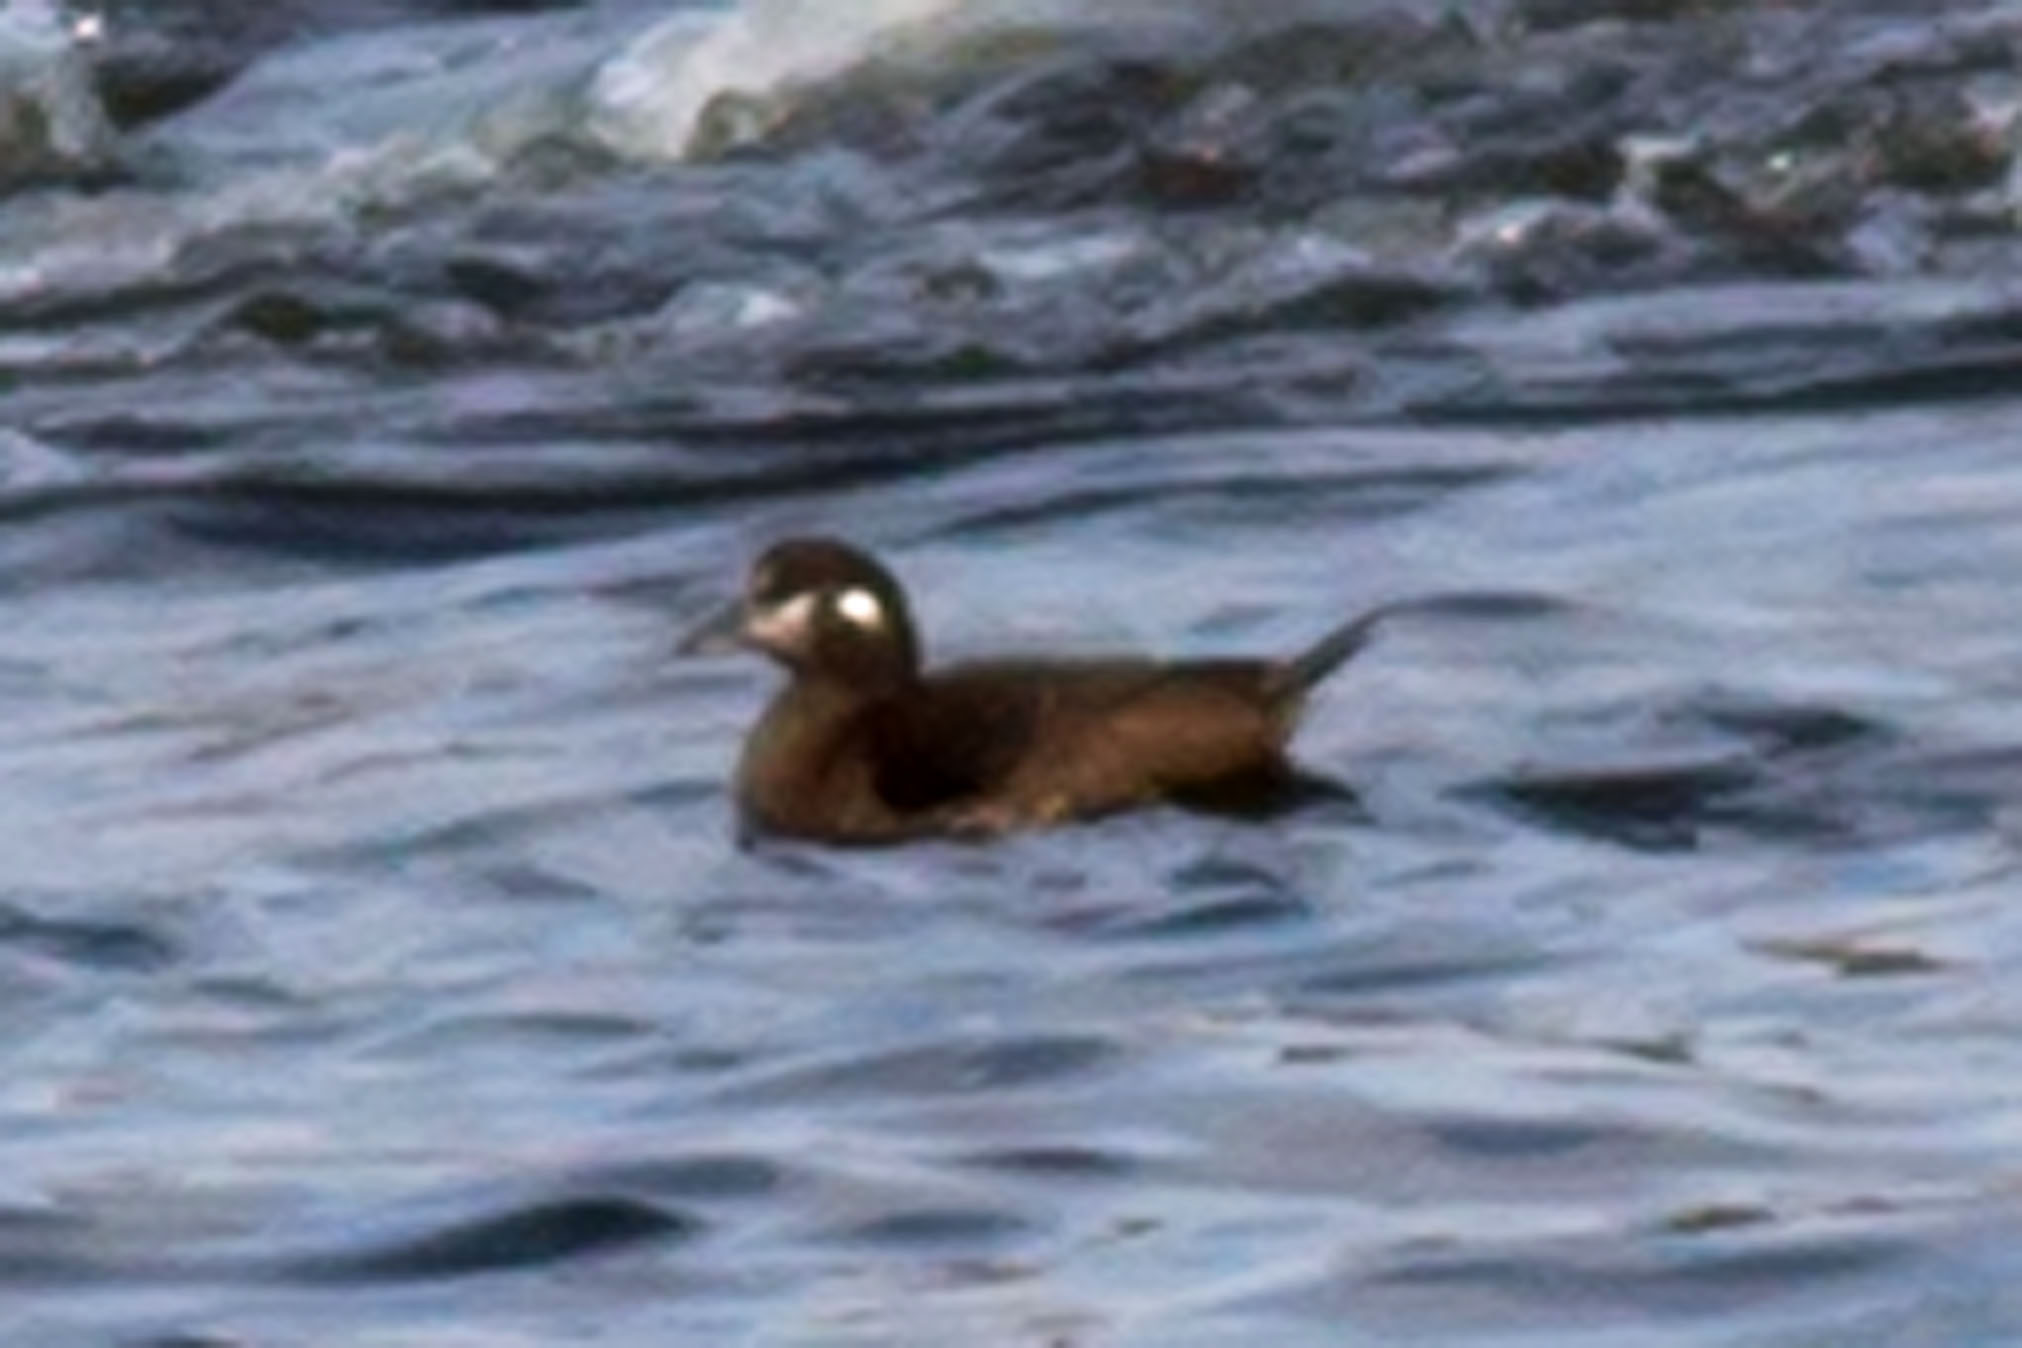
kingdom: Animalia
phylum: Chordata
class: Aves
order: Anseriformes
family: Anatidae
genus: Histrionicus
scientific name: Histrionicus histrionicus
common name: Harlequin duck
